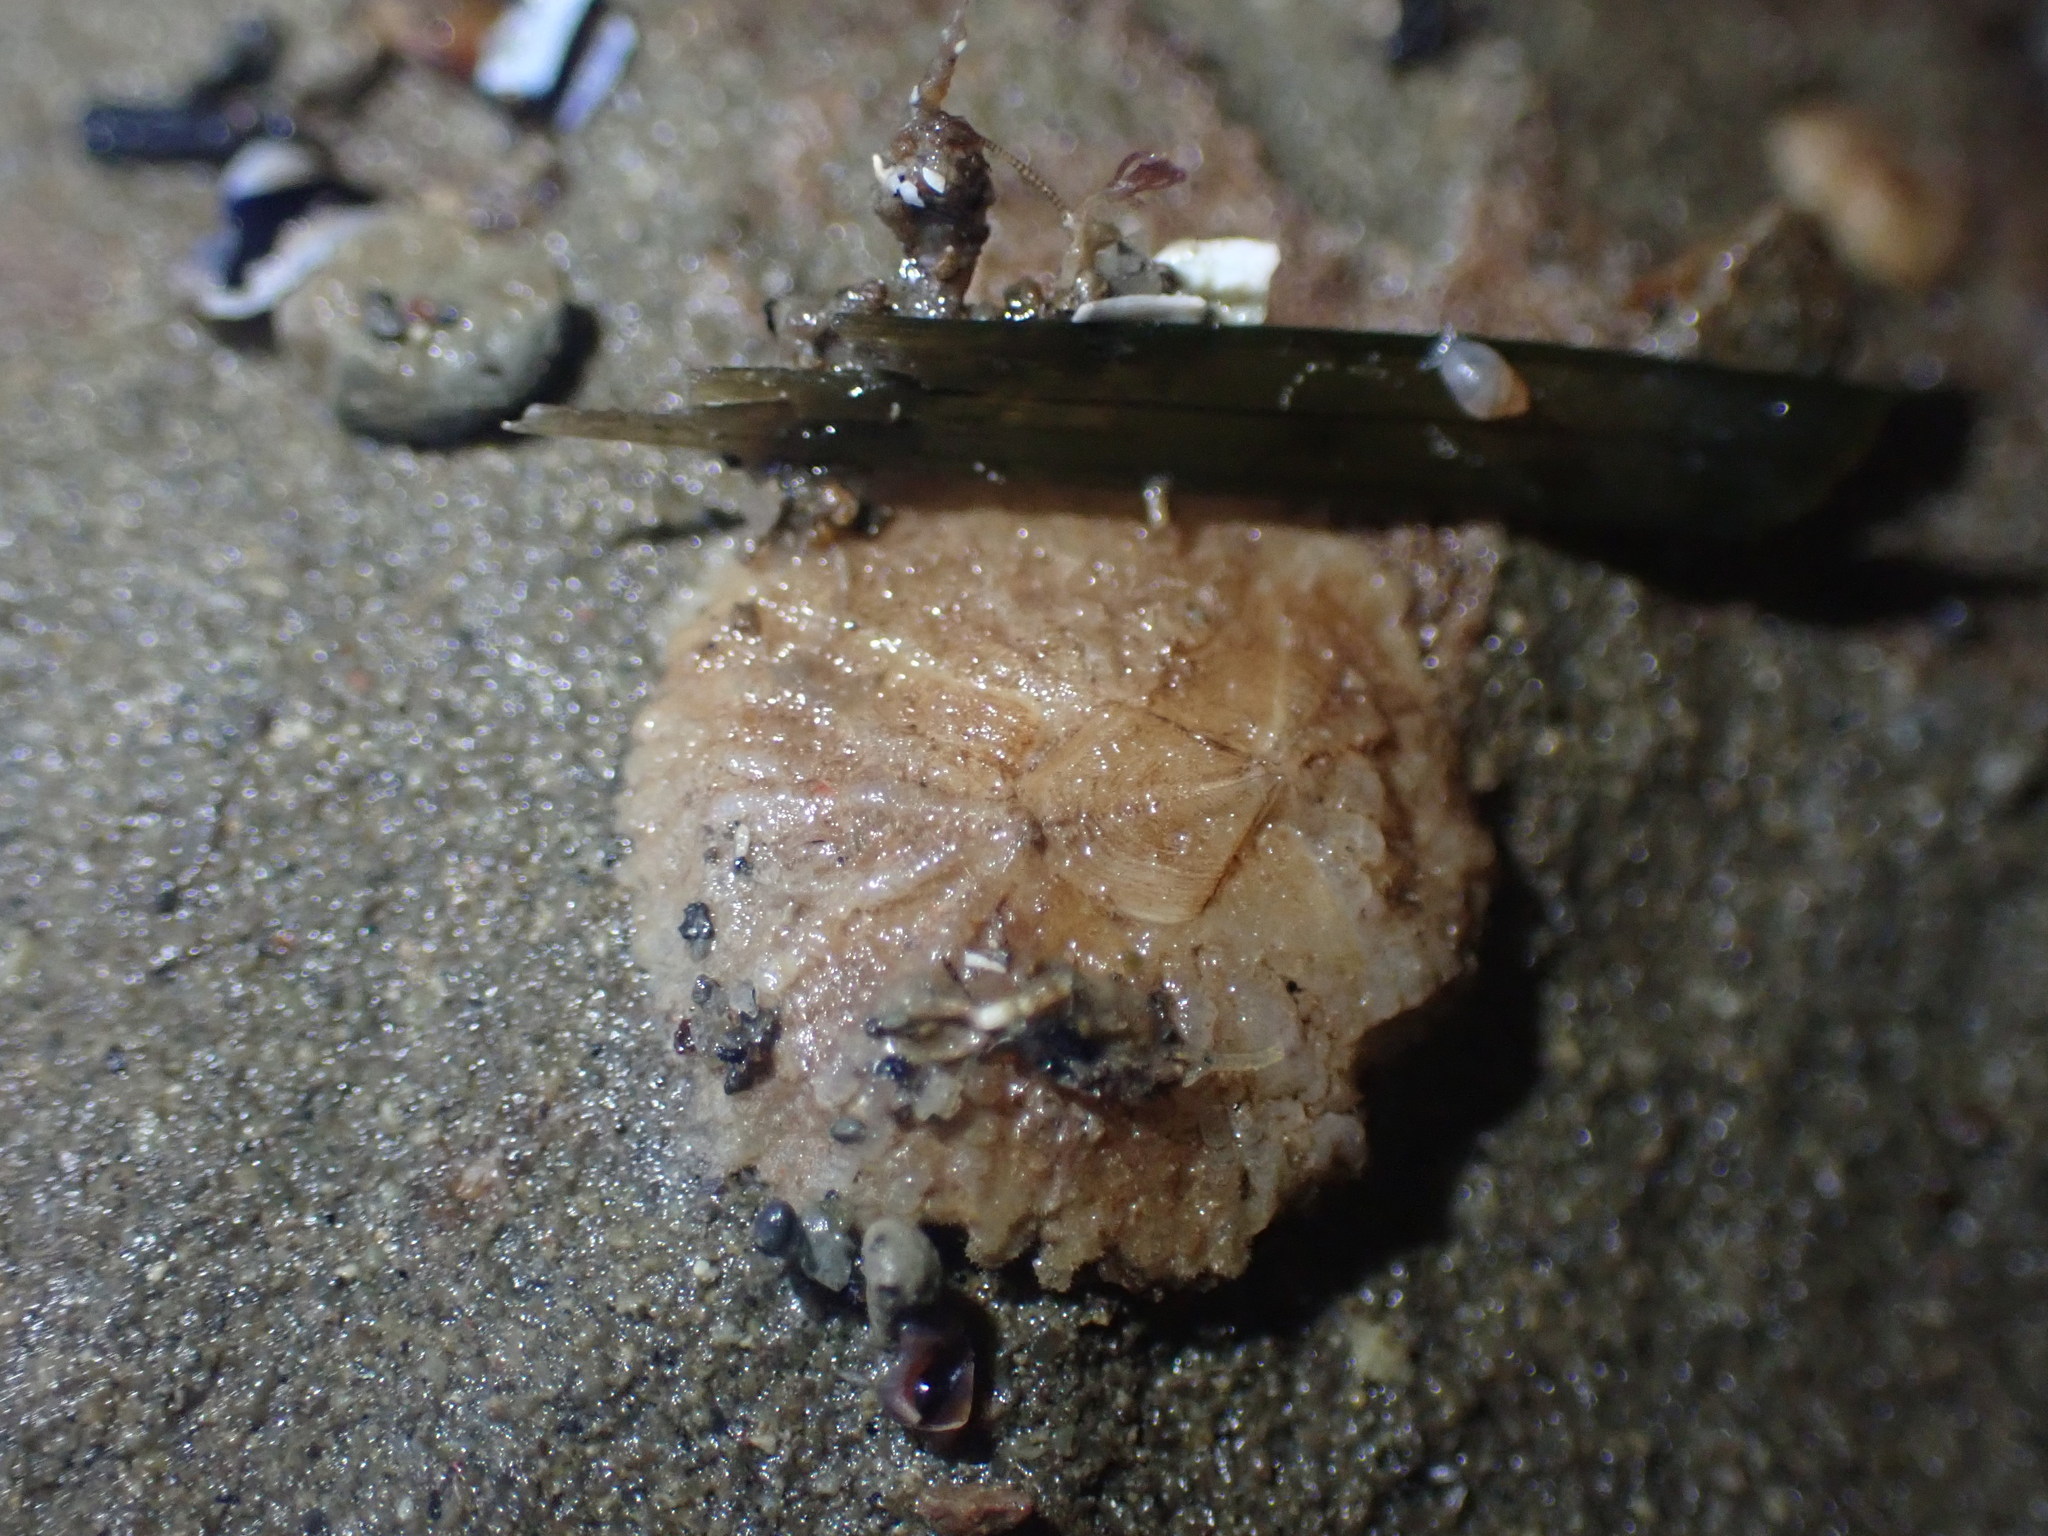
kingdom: Animalia
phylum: Arthropoda
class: Maxillopoda
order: Sessilia
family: Tetraclitidae
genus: Tetraclitella
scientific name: Tetraclitella depressa
